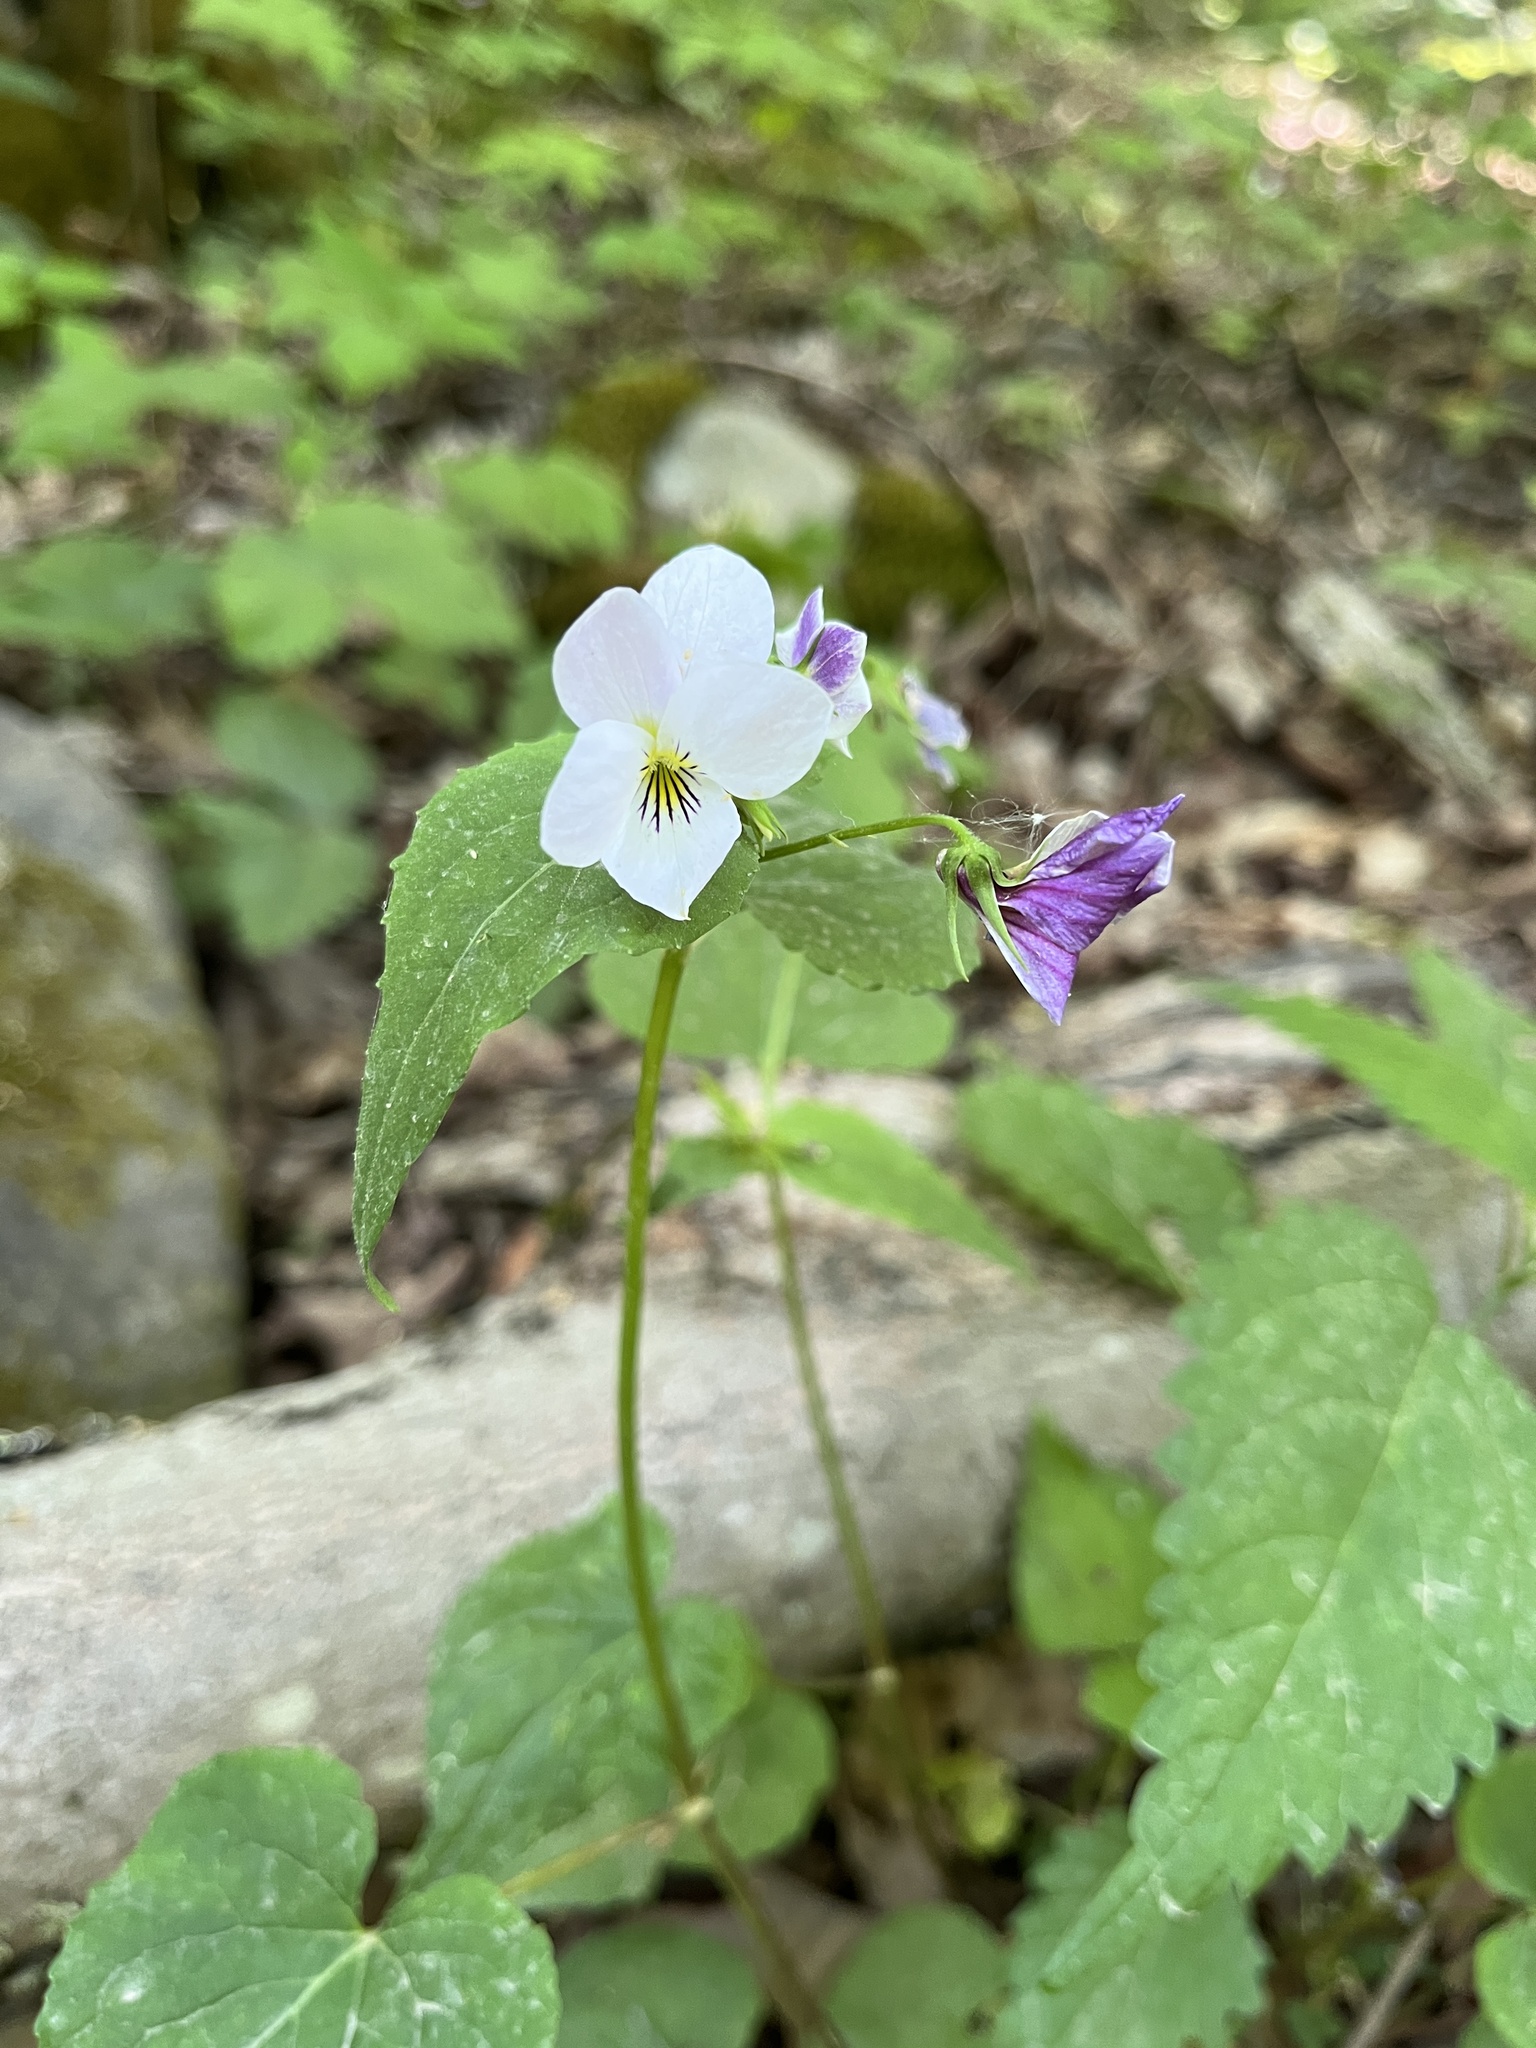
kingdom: Plantae
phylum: Tracheophyta
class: Magnoliopsida
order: Malpighiales
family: Violaceae
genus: Viola
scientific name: Viola canadensis
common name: Canada violet
